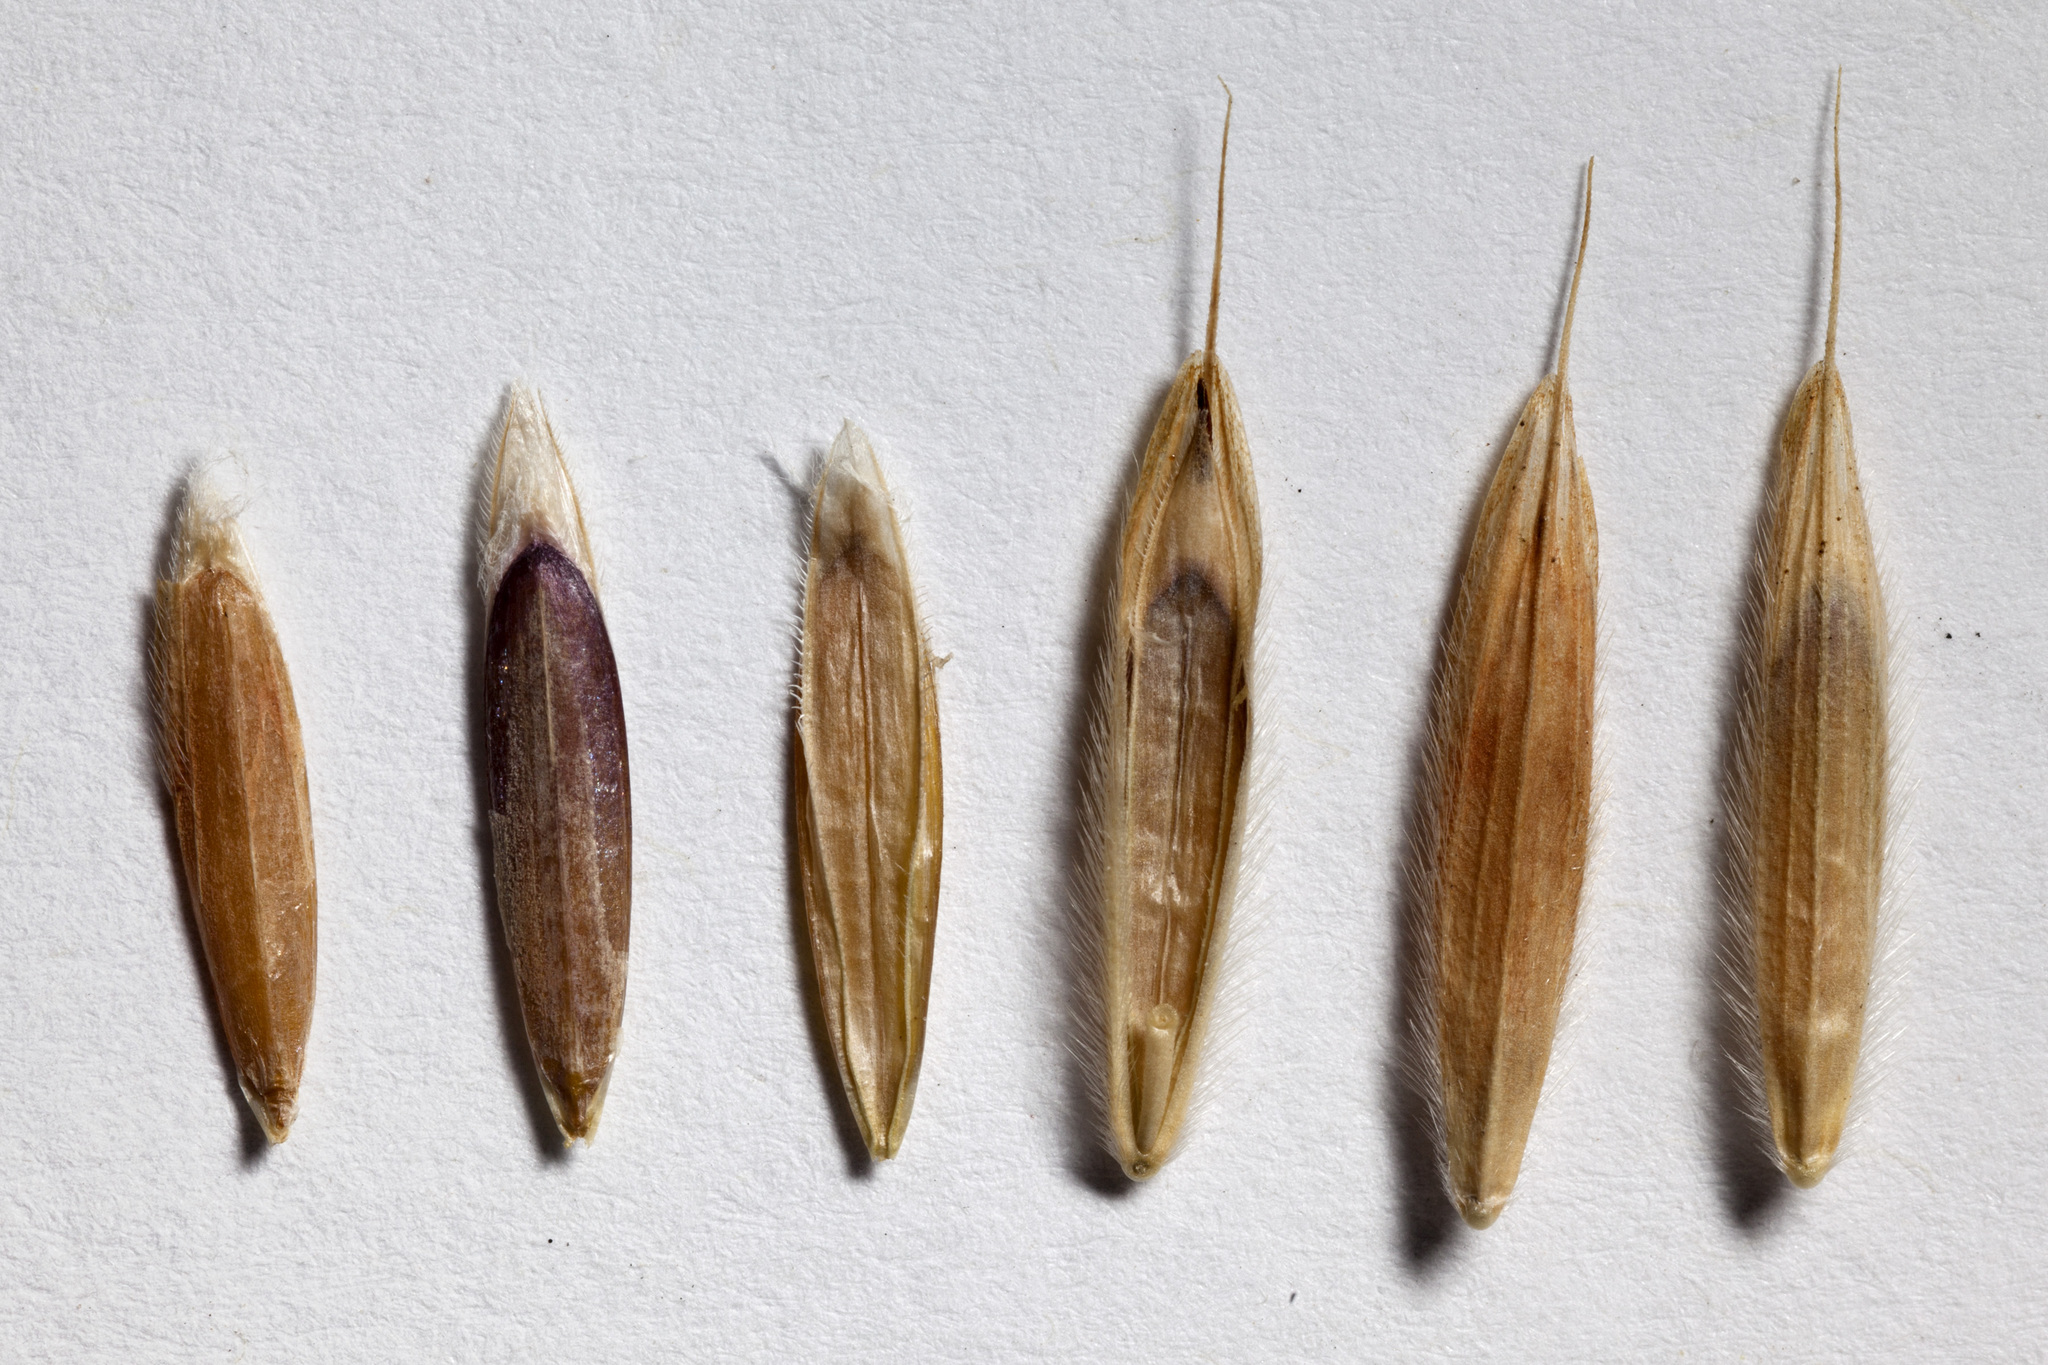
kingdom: Plantae
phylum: Tracheophyta
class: Liliopsida
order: Poales
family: Poaceae
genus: Bromus
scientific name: Bromus ciliatus
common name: Fringe brome
